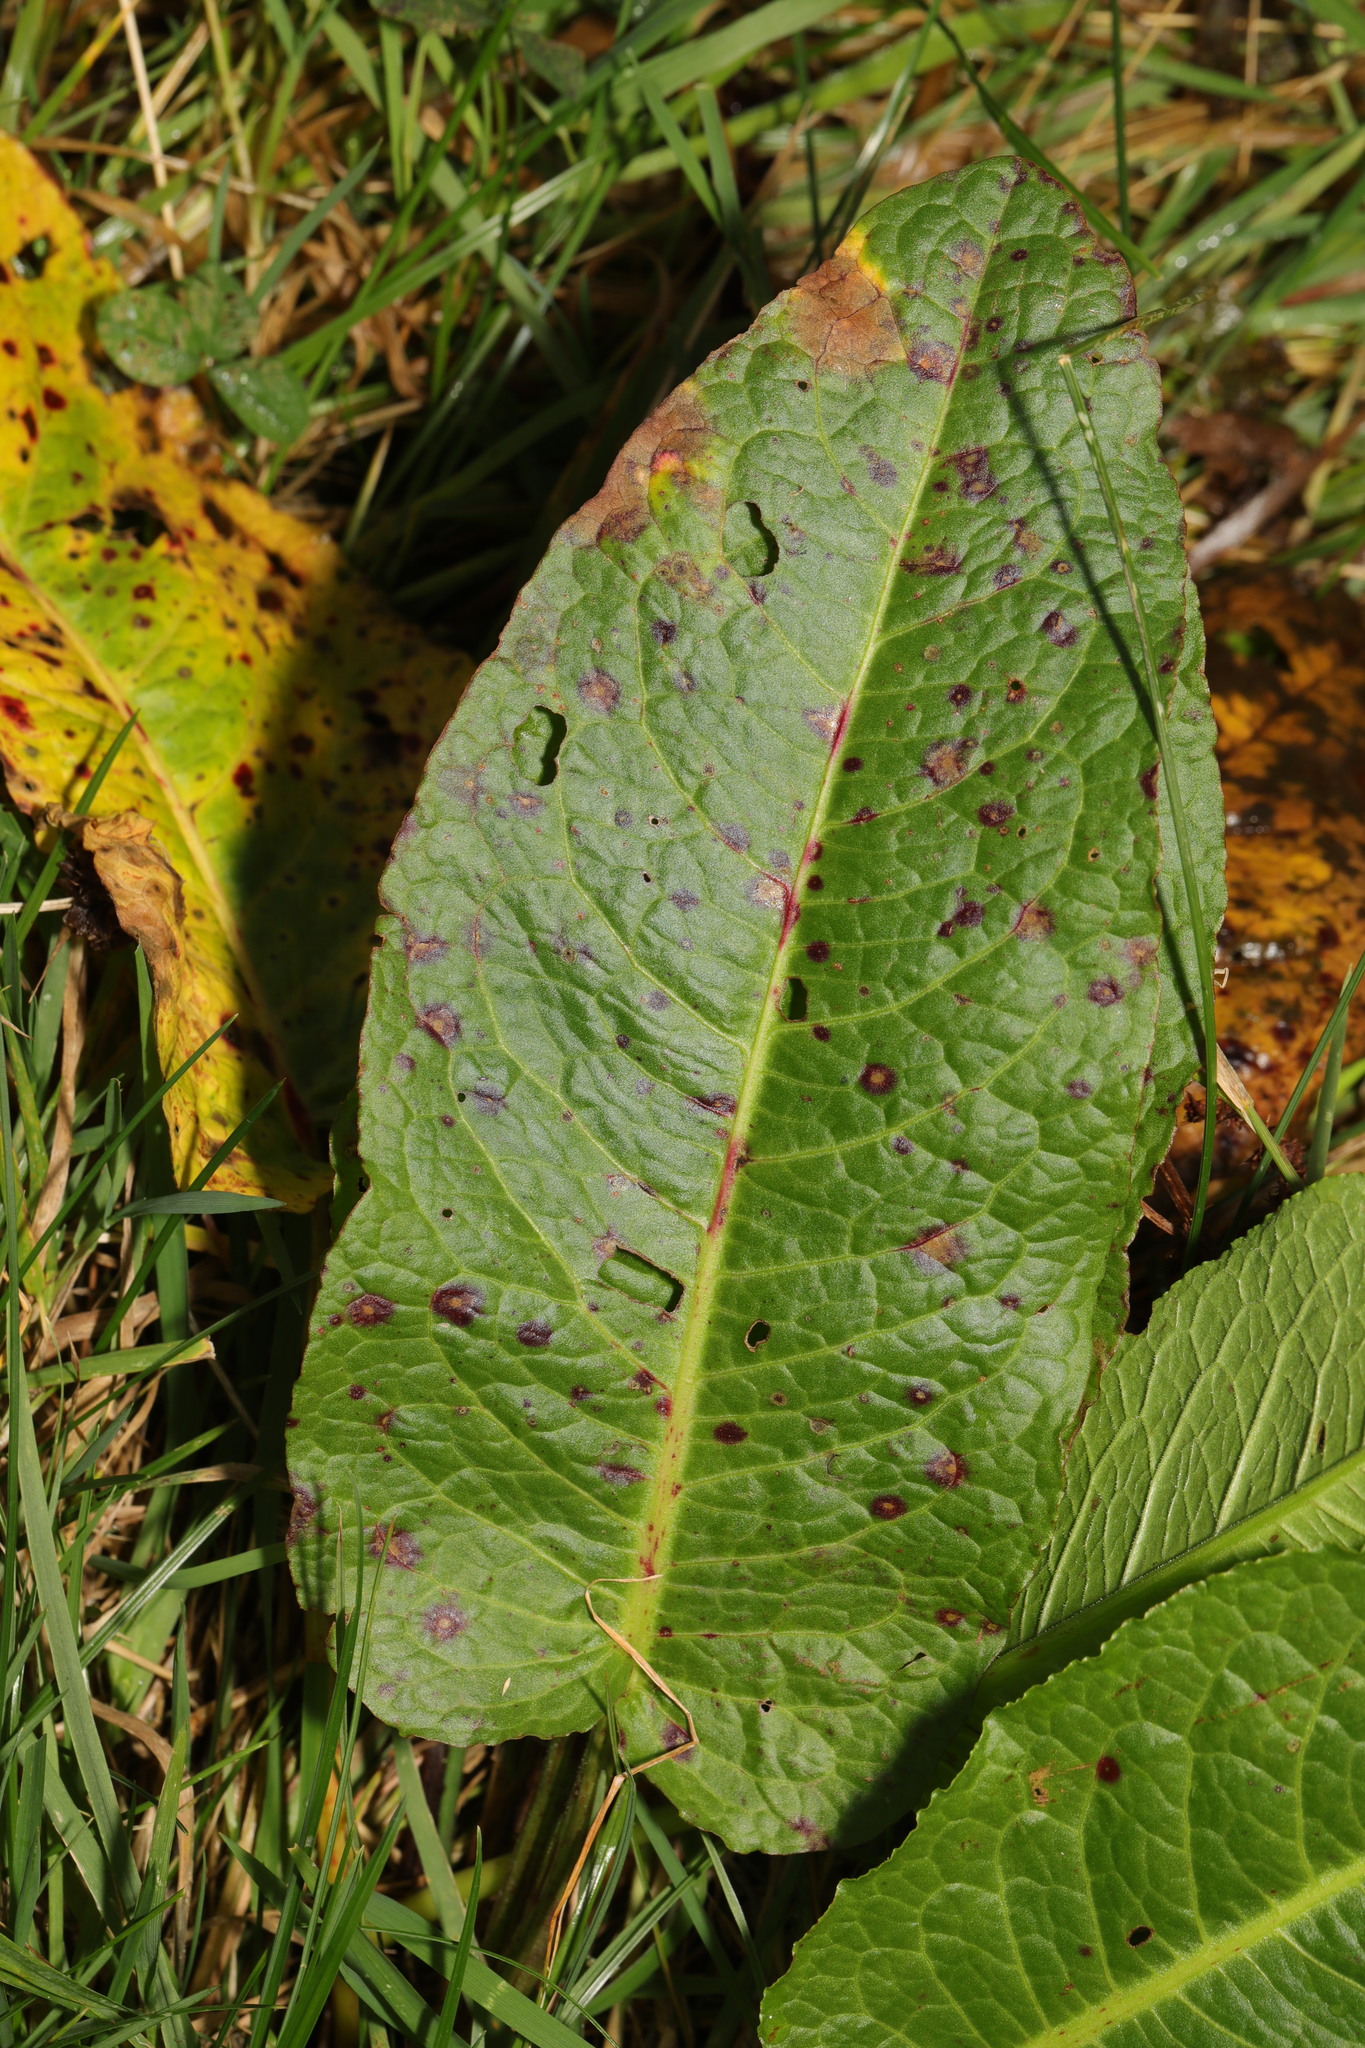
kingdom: Plantae
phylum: Tracheophyta
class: Magnoliopsida
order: Caryophyllales
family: Polygonaceae
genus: Rumex
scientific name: Rumex obtusifolius
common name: Bitter dock
